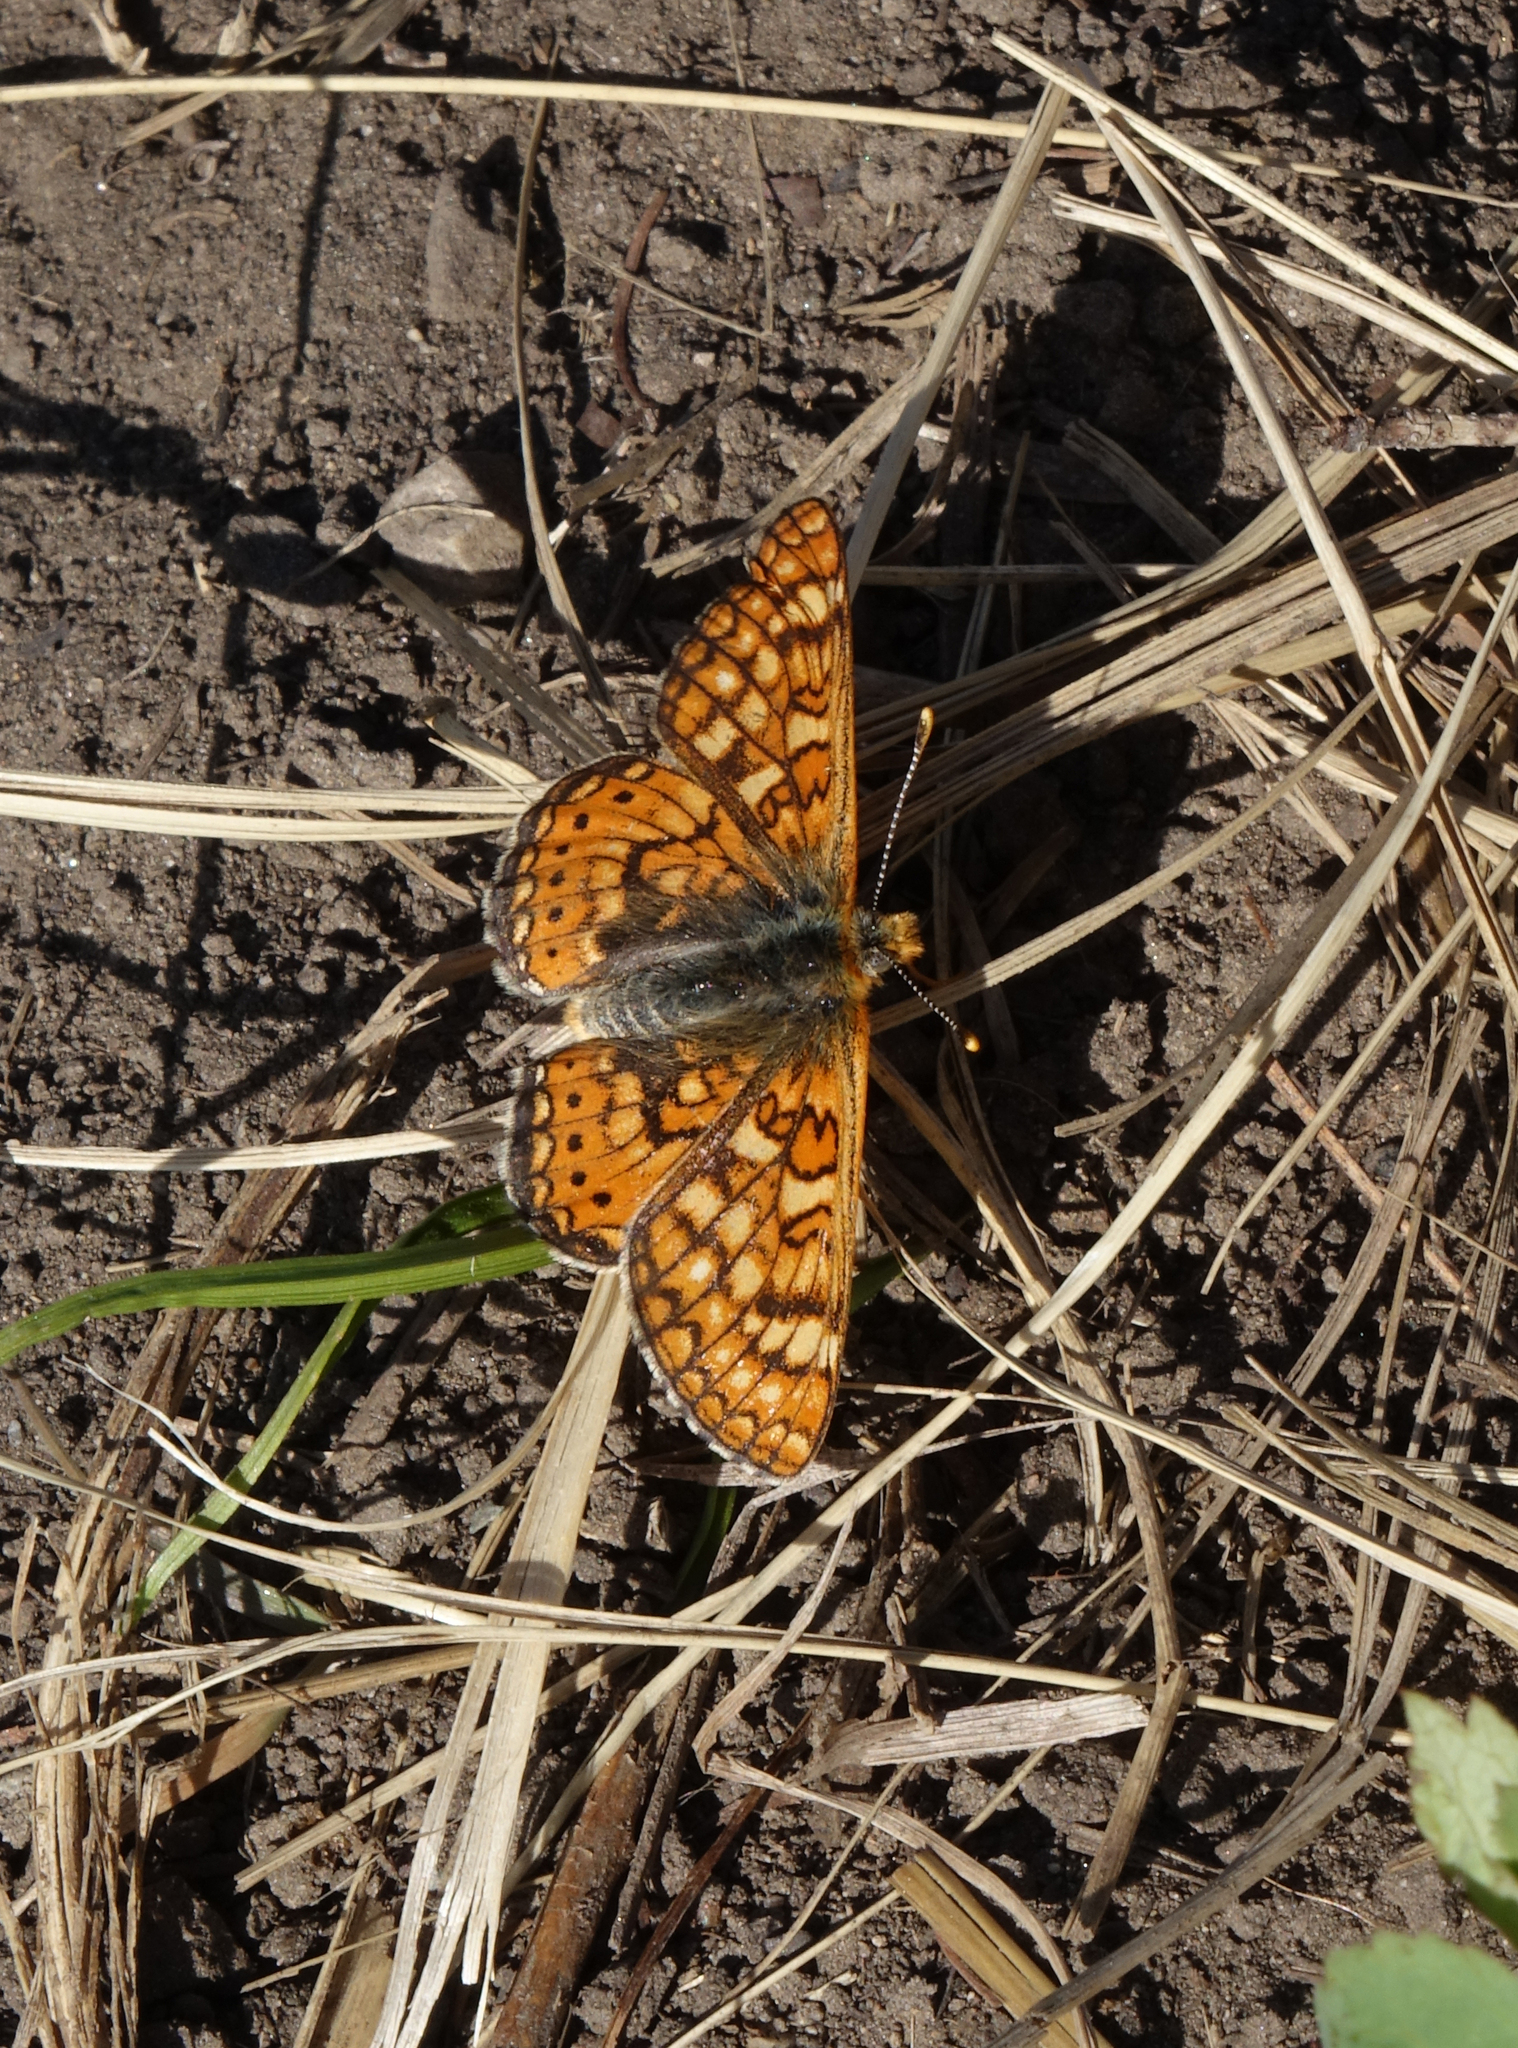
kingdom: Animalia
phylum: Arthropoda
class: Insecta
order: Lepidoptera
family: Nymphalidae
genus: Euphydryas
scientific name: Euphydryas aurinia
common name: Marsh fritillary
